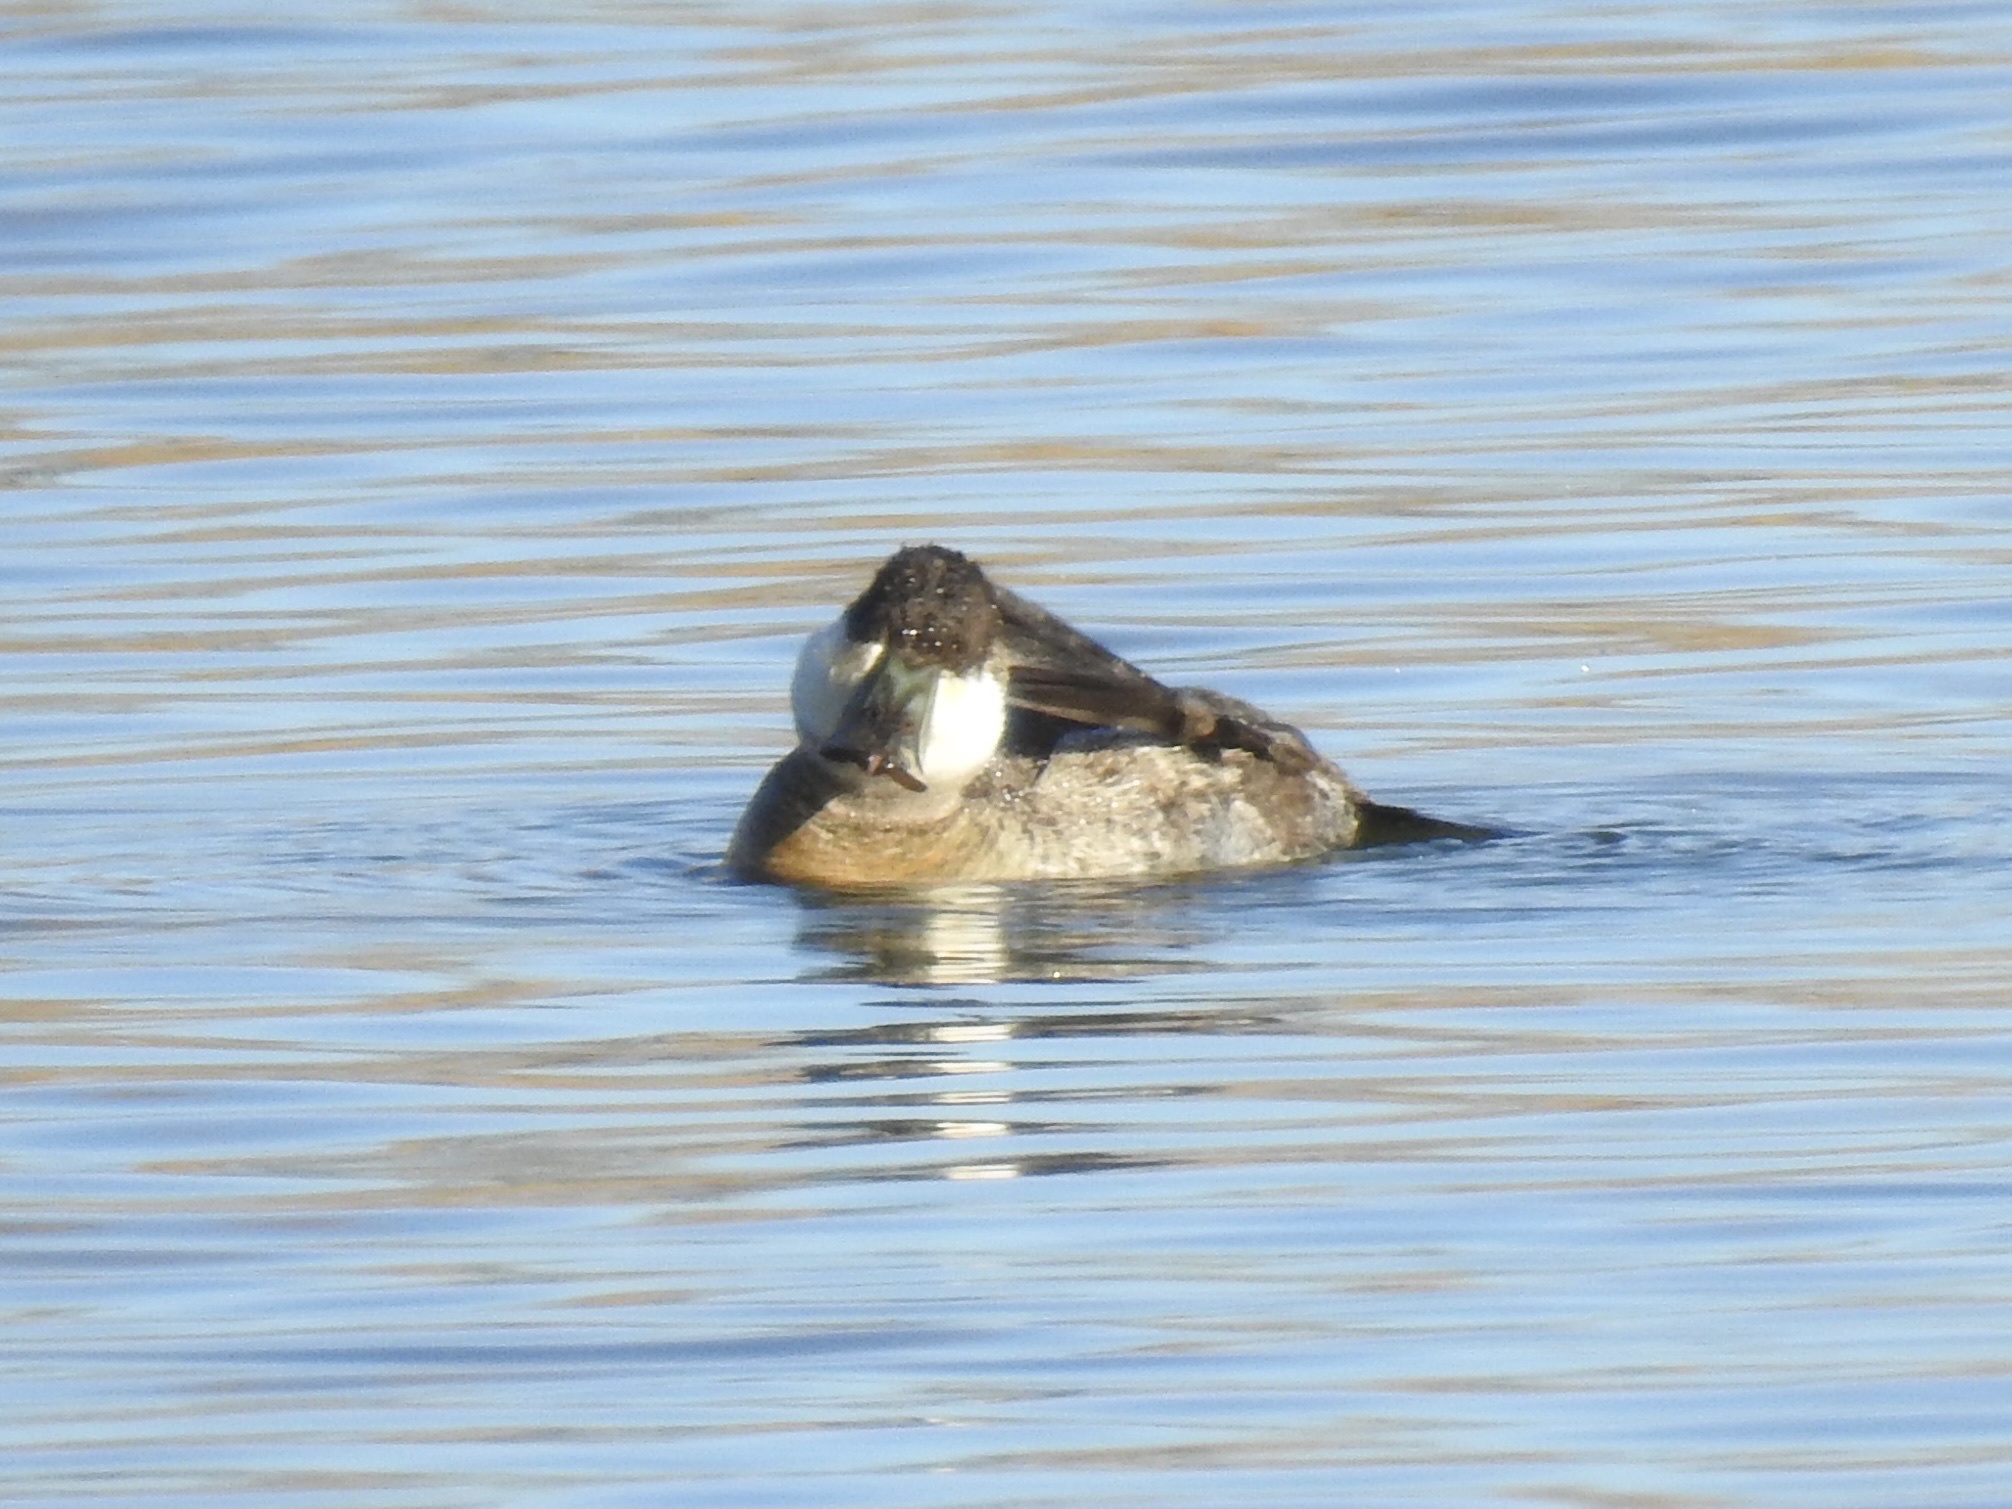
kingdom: Animalia
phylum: Chordata
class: Aves
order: Anseriformes
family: Anatidae
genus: Oxyura
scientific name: Oxyura jamaicensis
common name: Ruddy duck
